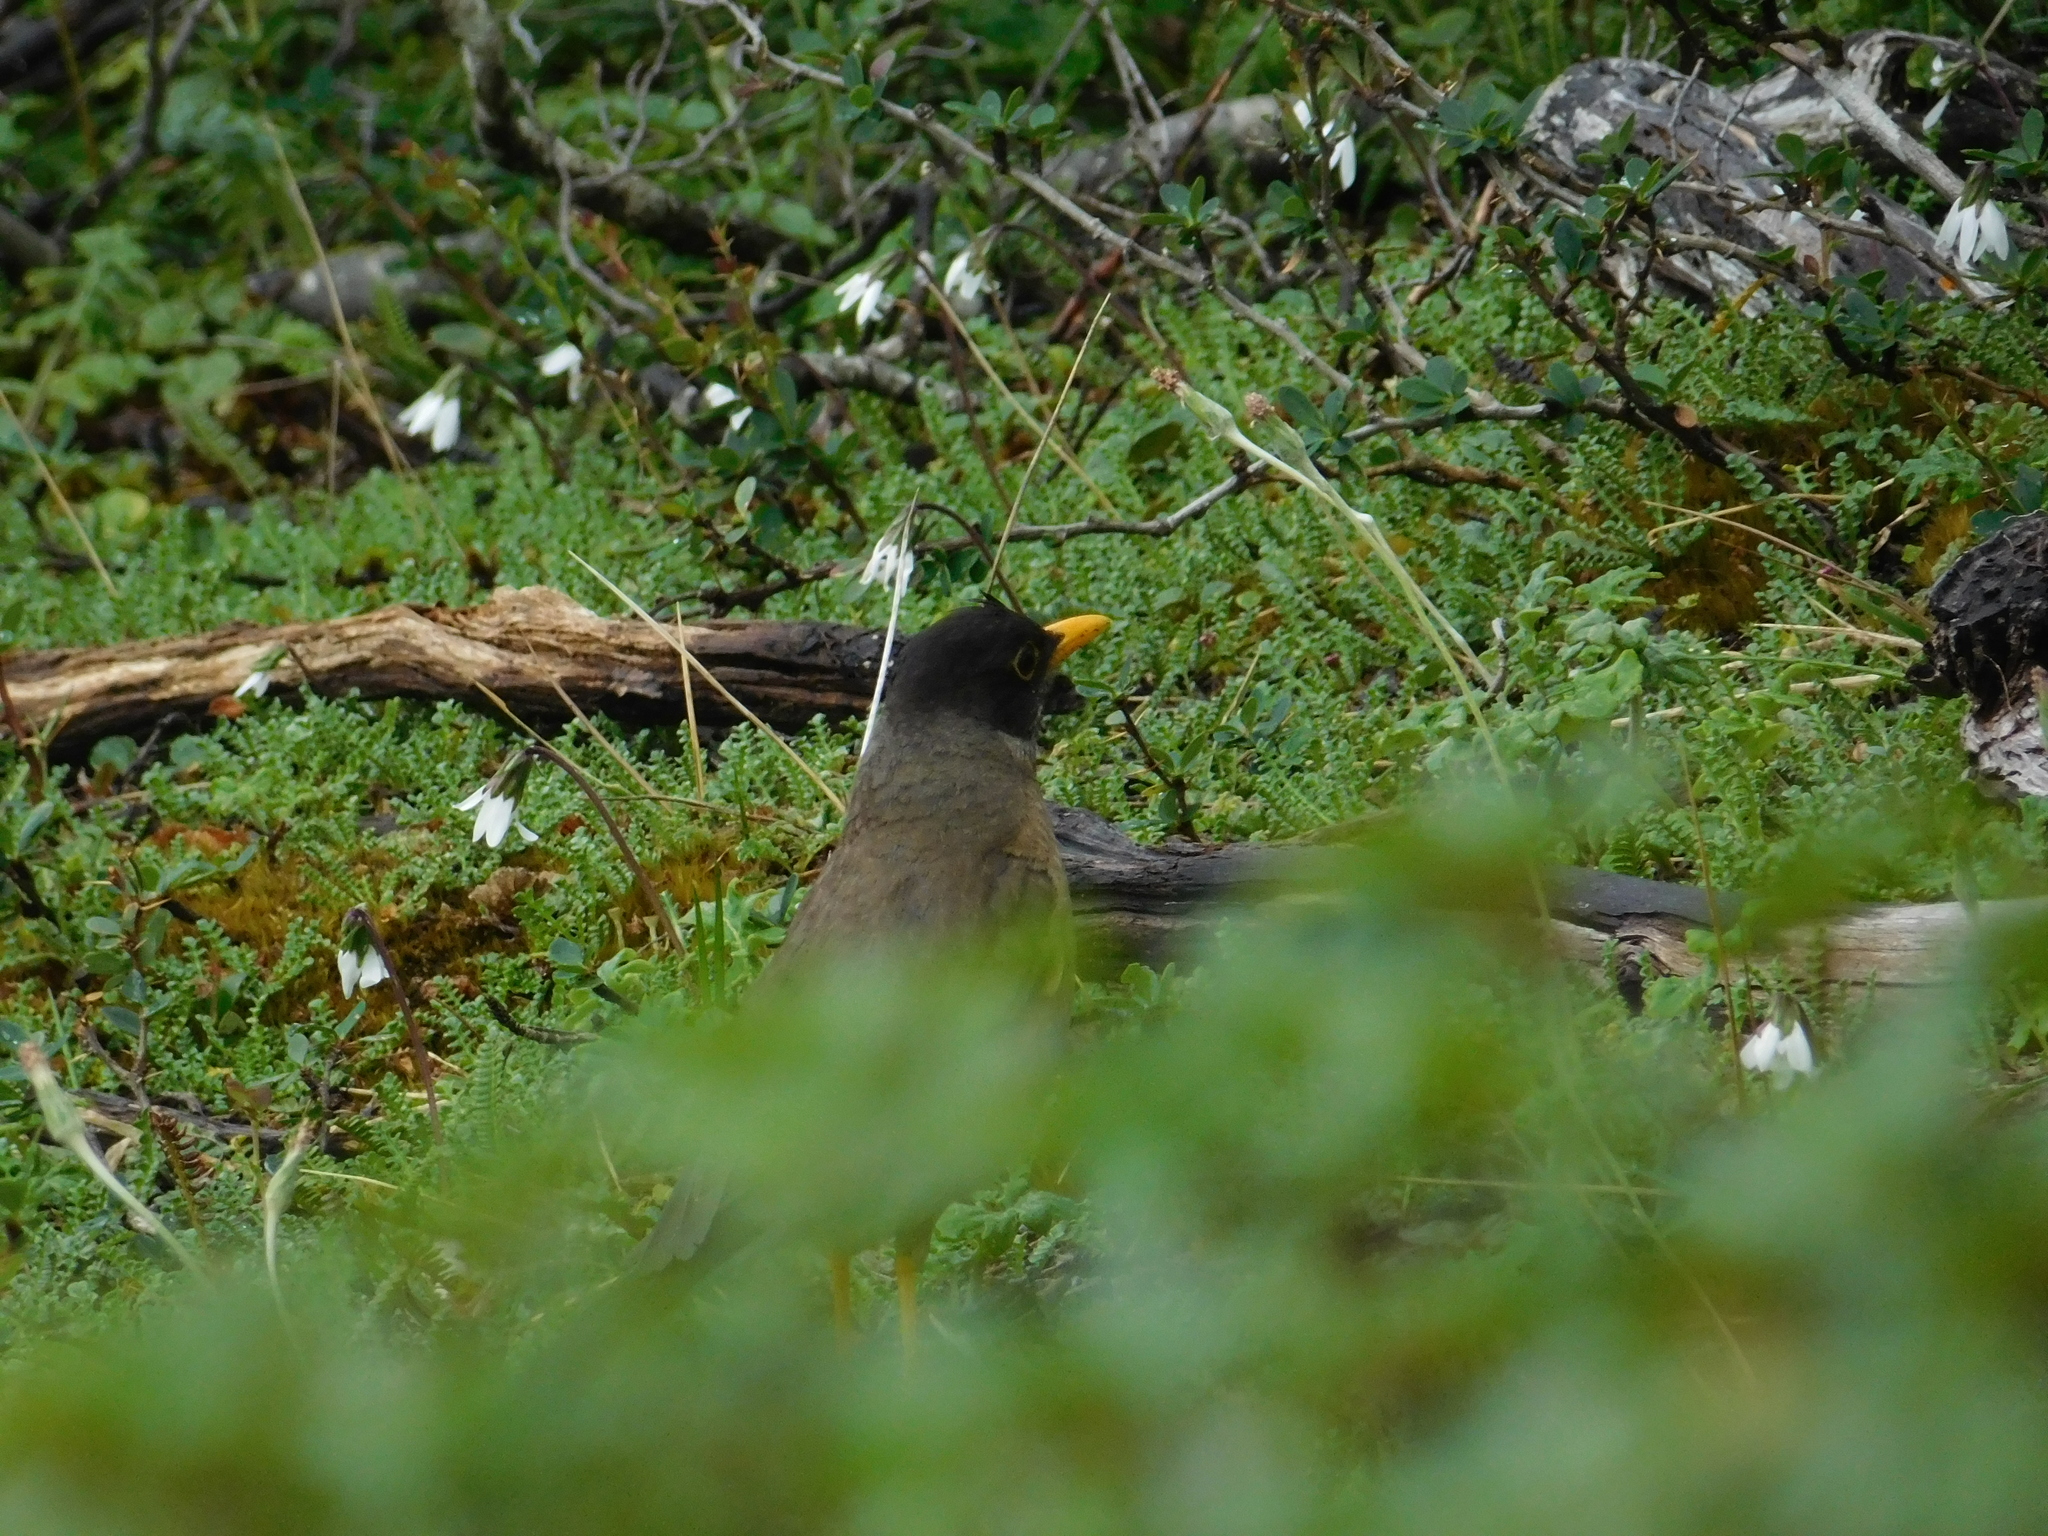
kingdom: Animalia
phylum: Chordata
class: Aves
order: Passeriformes
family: Turdidae
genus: Turdus
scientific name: Turdus falcklandii
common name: Austral thrush
